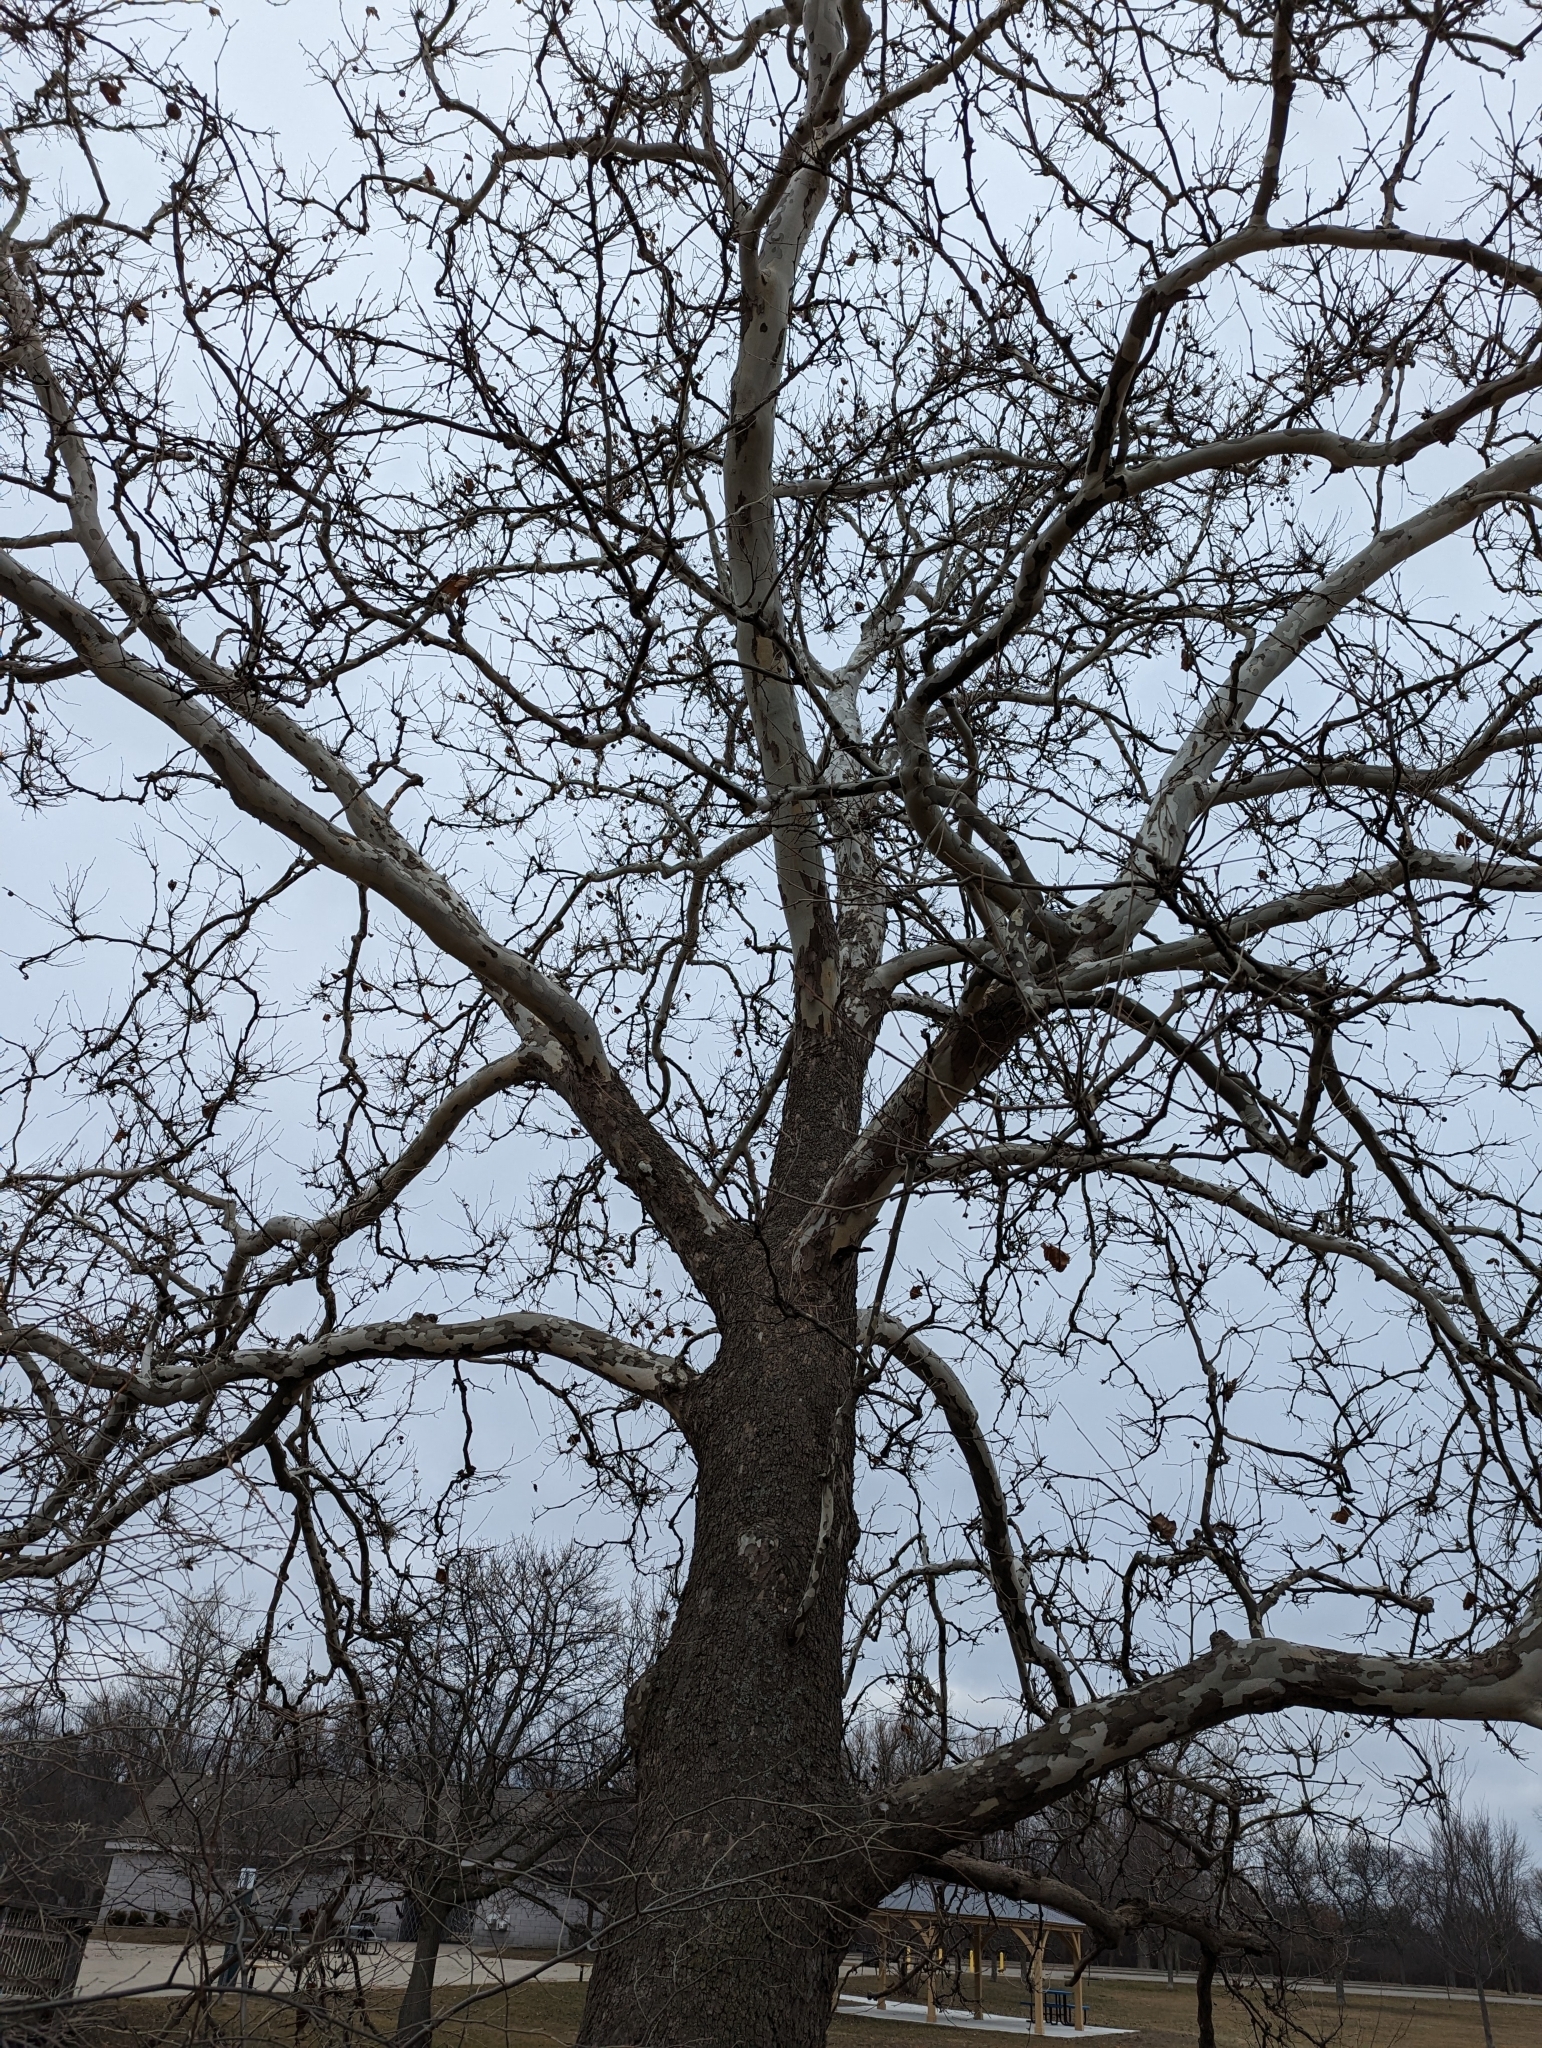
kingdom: Plantae
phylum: Tracheophyta
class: Magnoliopsida
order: Proteales
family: Platanaceae
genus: Platanus
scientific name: Platanus occidentalis
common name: American sycamore
